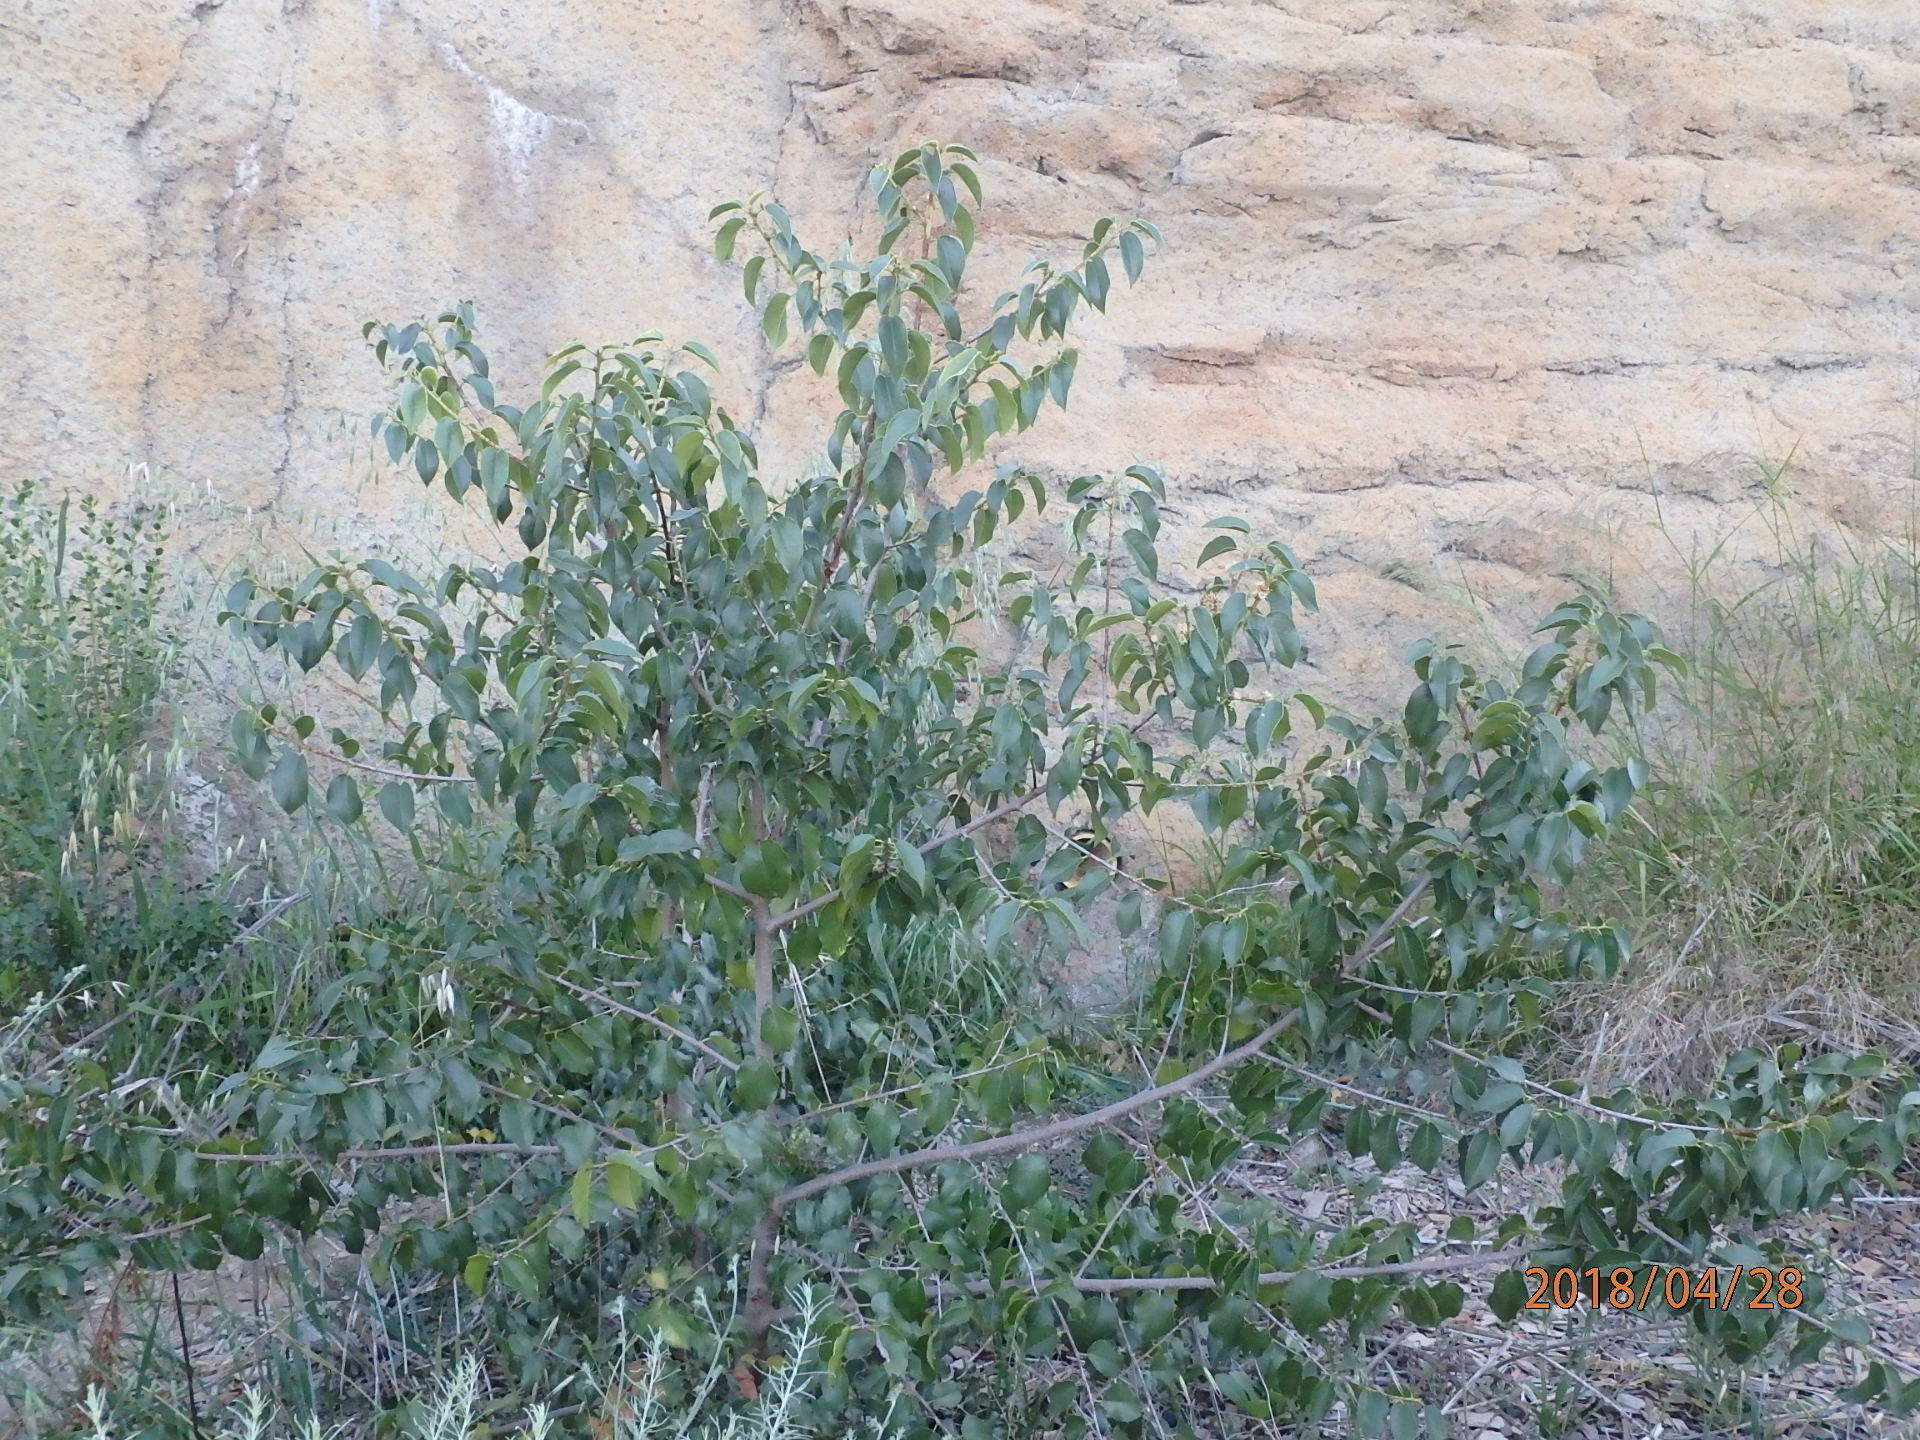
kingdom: Plantae
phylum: Tracheophyta
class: Magnoliopsida
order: Rosales
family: Rosaceae
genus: Prunus
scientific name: Prunus ilicifolia
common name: Hollyleaf cherry
